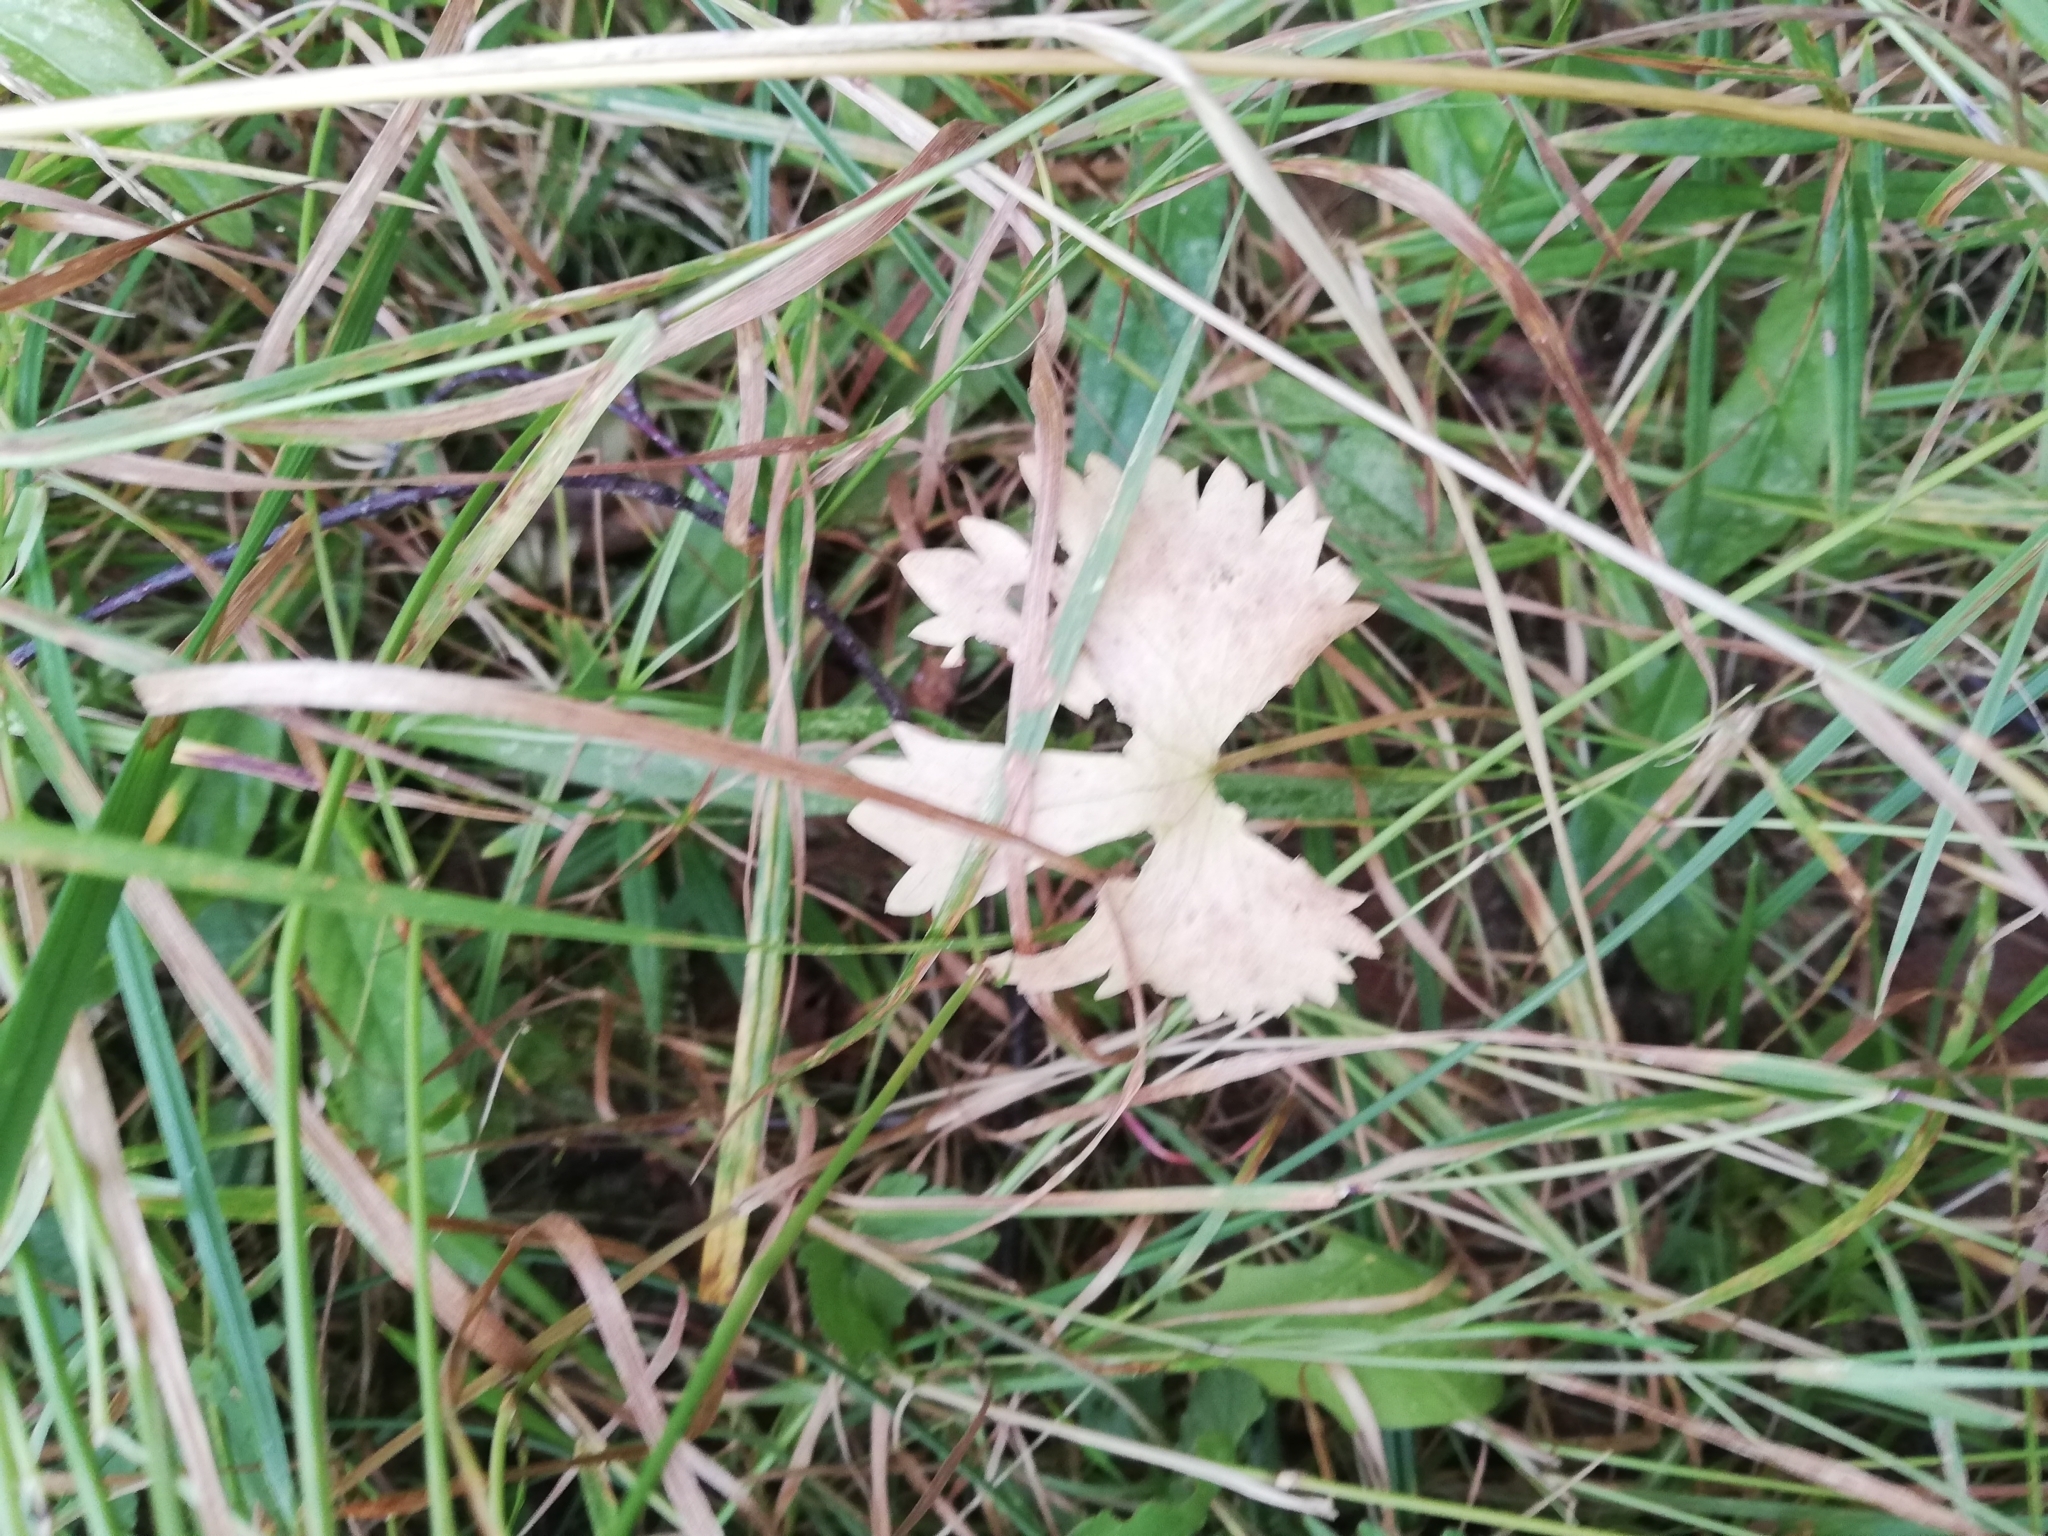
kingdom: Plantae
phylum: Tracheophyta
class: Magnoliopsida
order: Ranunculales
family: Ranunculaceae
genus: Ranunculus
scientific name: Ranunculus auricomus
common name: Goldilocks buttercup
